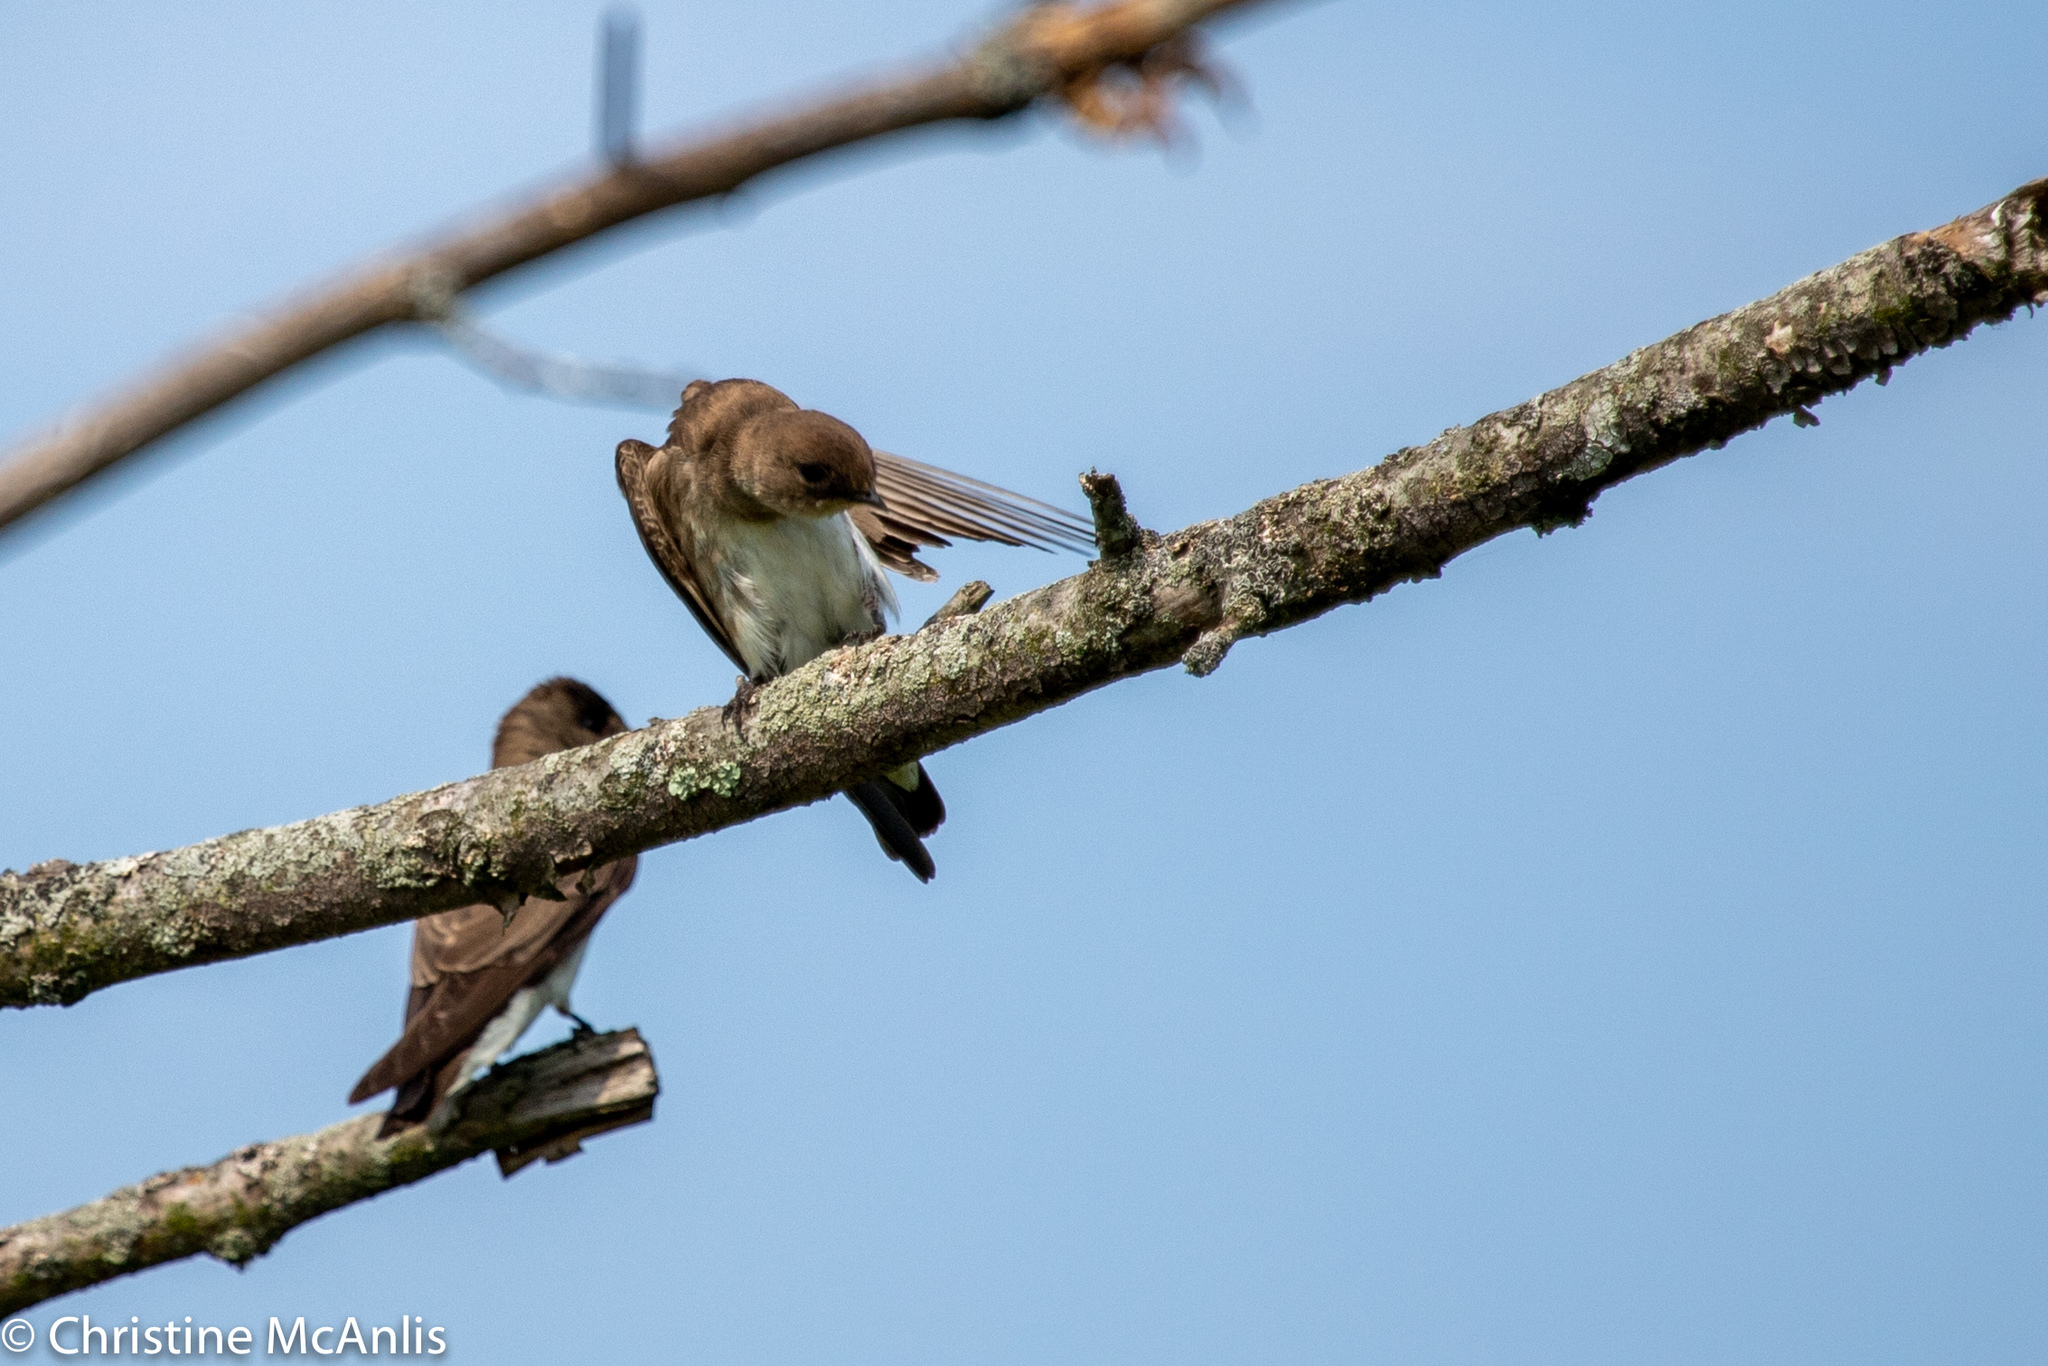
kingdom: Animalia
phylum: Chordata
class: Aves
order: Passeriformes
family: Hirundinidae
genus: Stelgidopteryx
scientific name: Stelgidopteryx serripennis
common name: Northern rough-winged swallow
